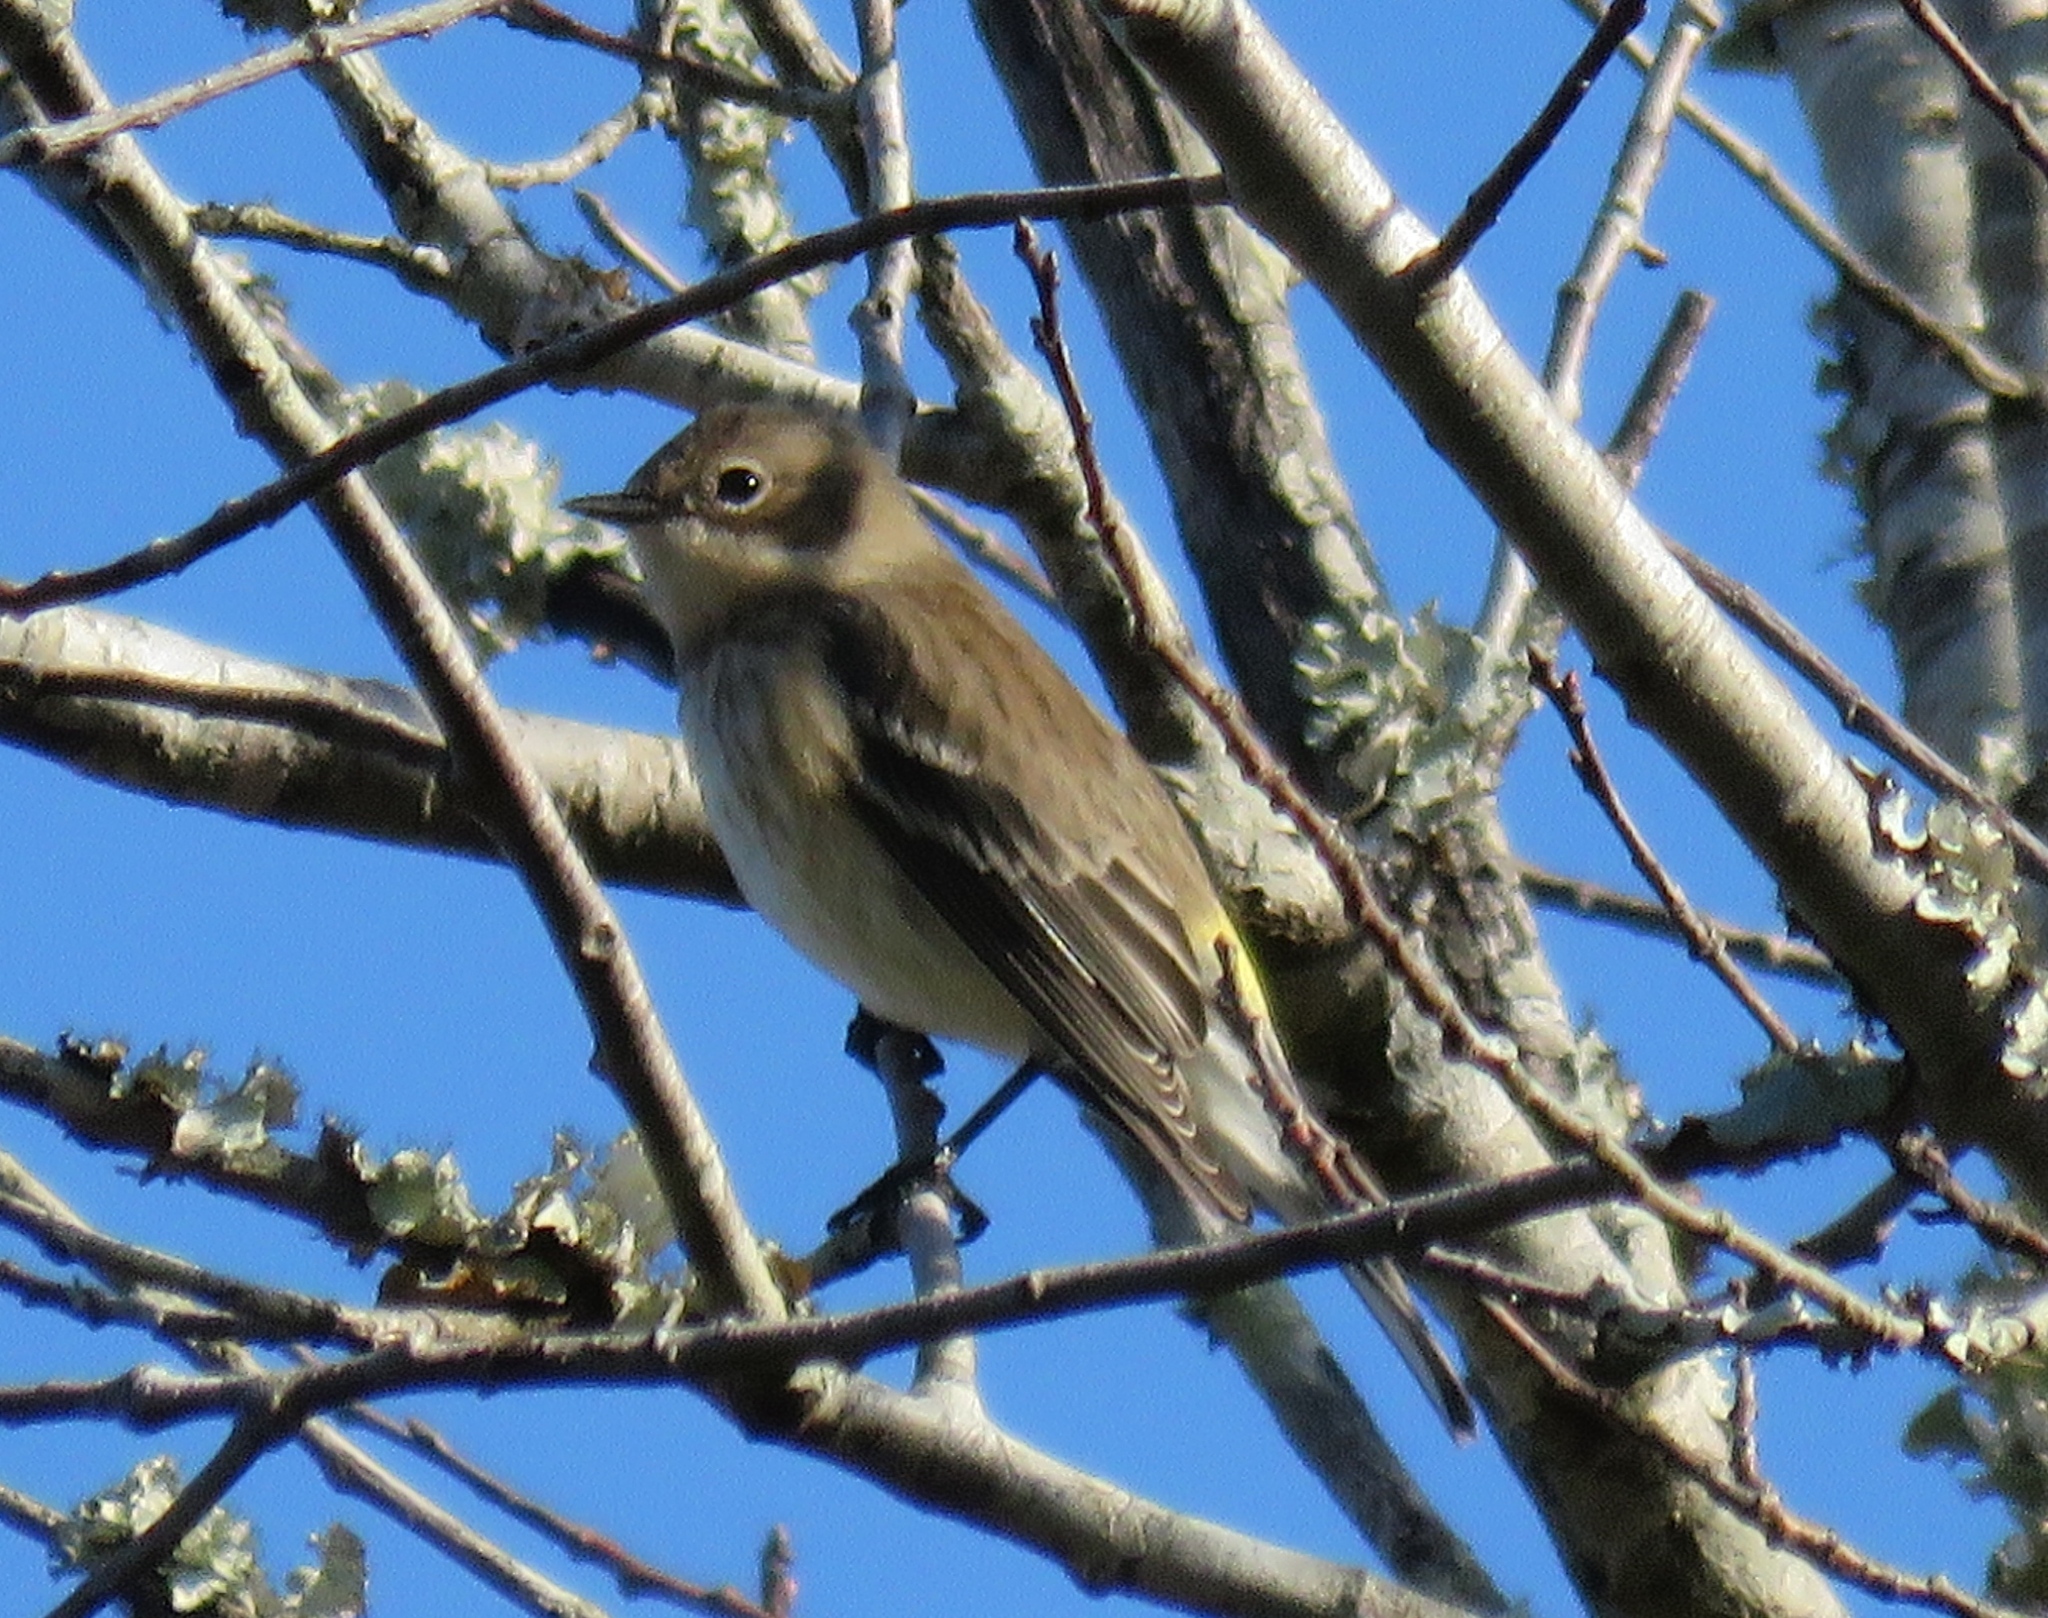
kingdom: Animalia
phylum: Chordata
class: Aves
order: Passeriformes
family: Parulidae
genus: Setophaga
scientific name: Setophaga coronata
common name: Myrtle warbler
